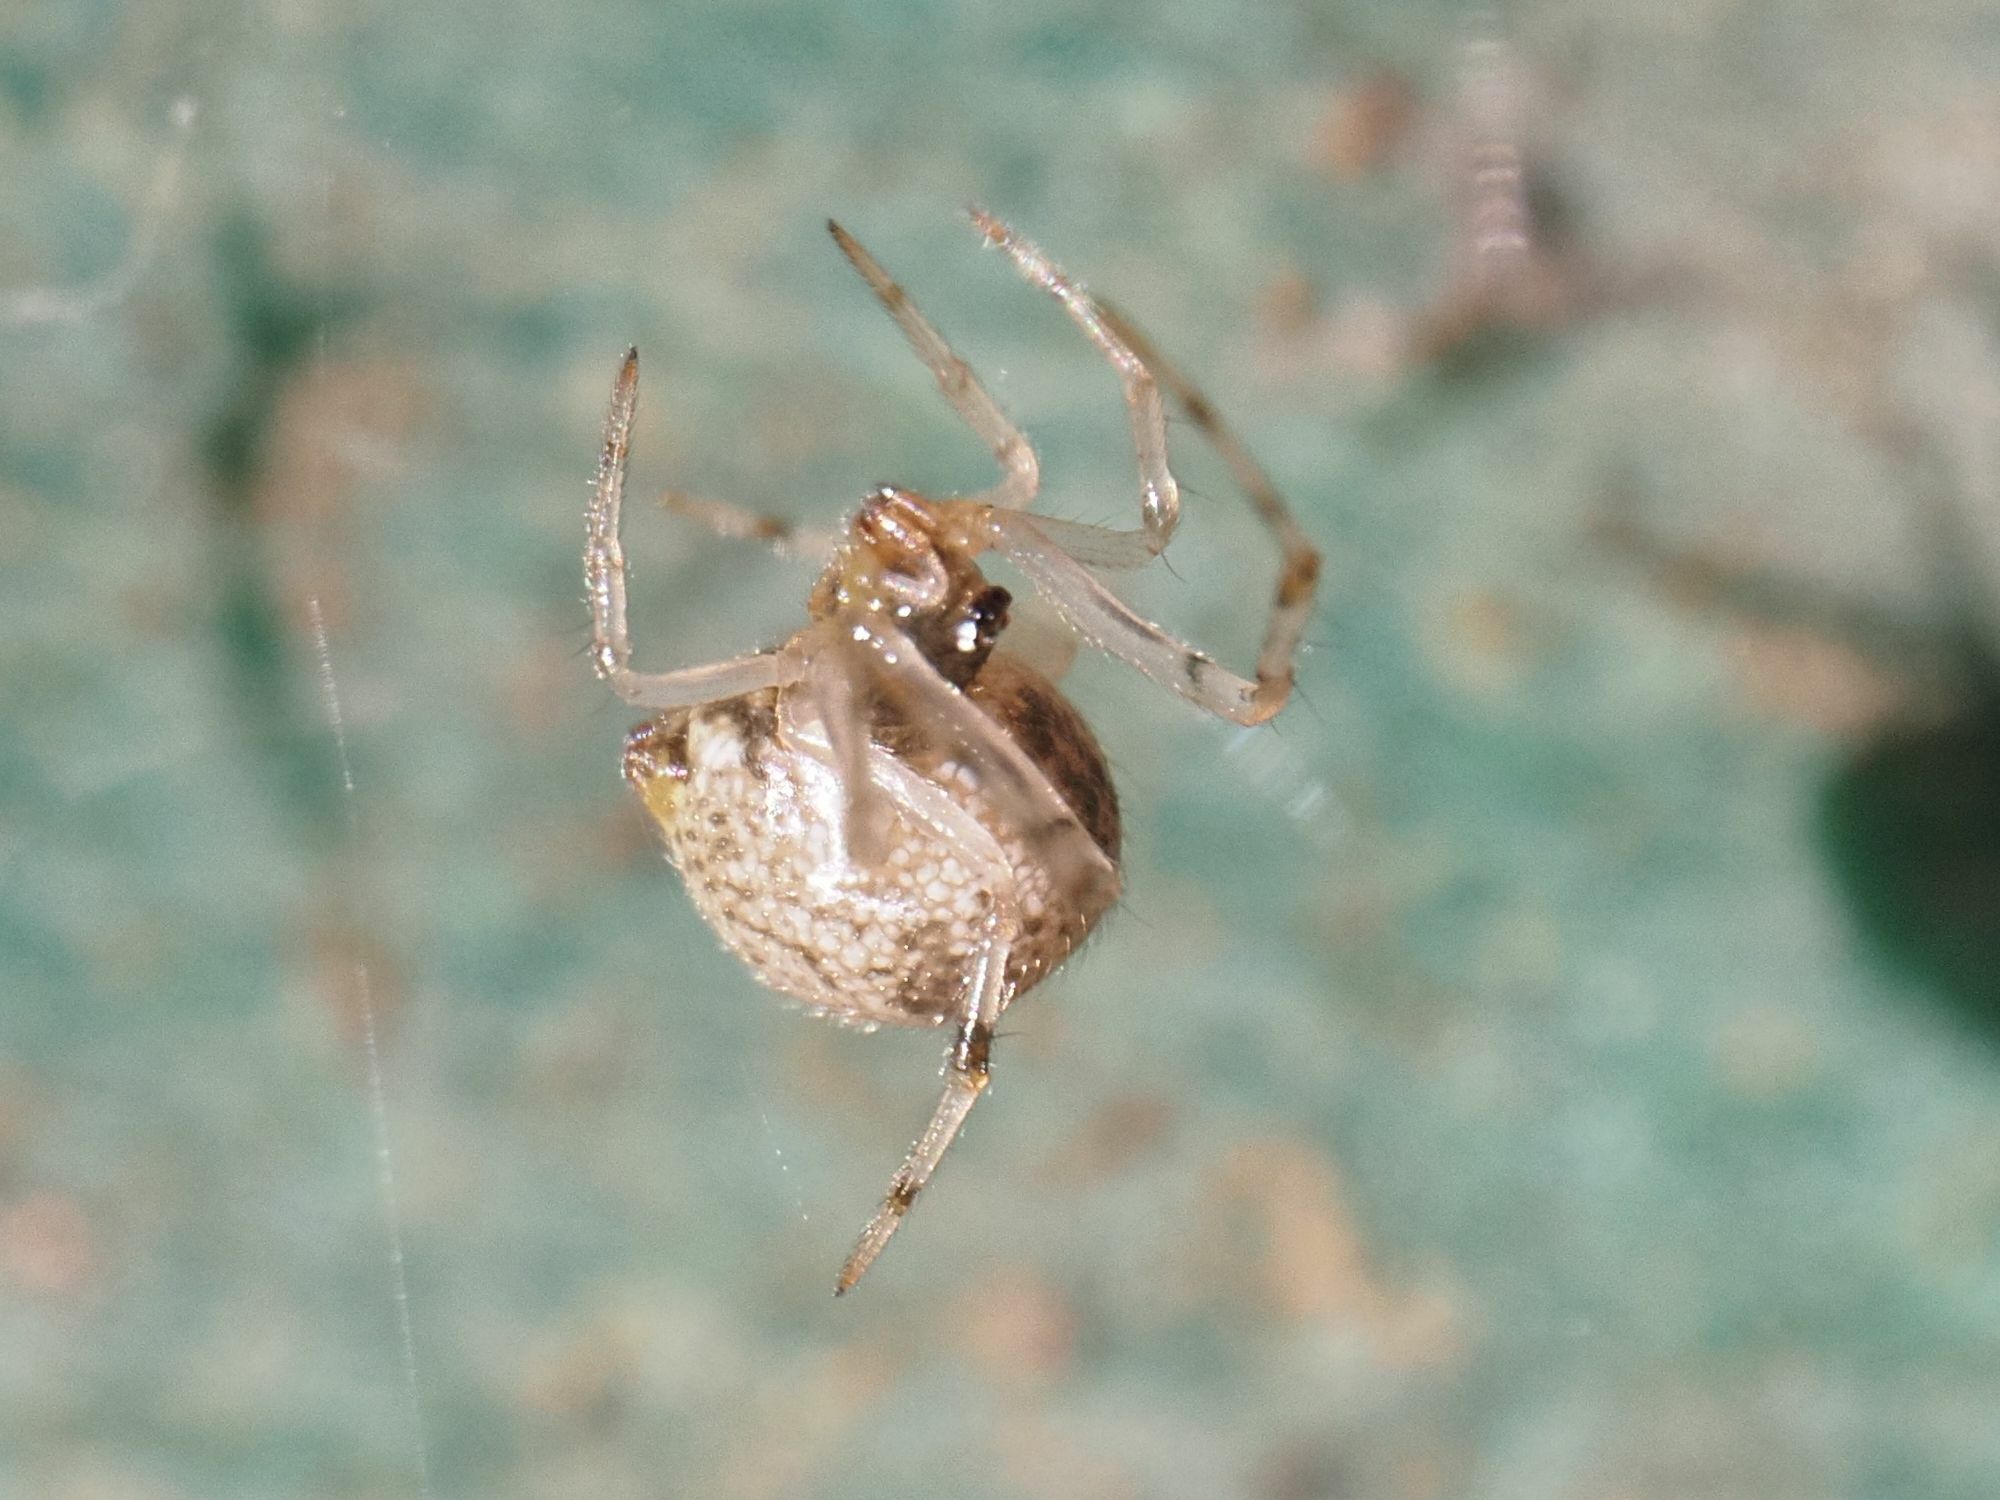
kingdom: Animalia
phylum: Arthropoda
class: Arachnida
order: Araneae
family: Theridiidae
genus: Parasteatoda
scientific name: Parasteatoda tepidariorum
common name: Common house spider
